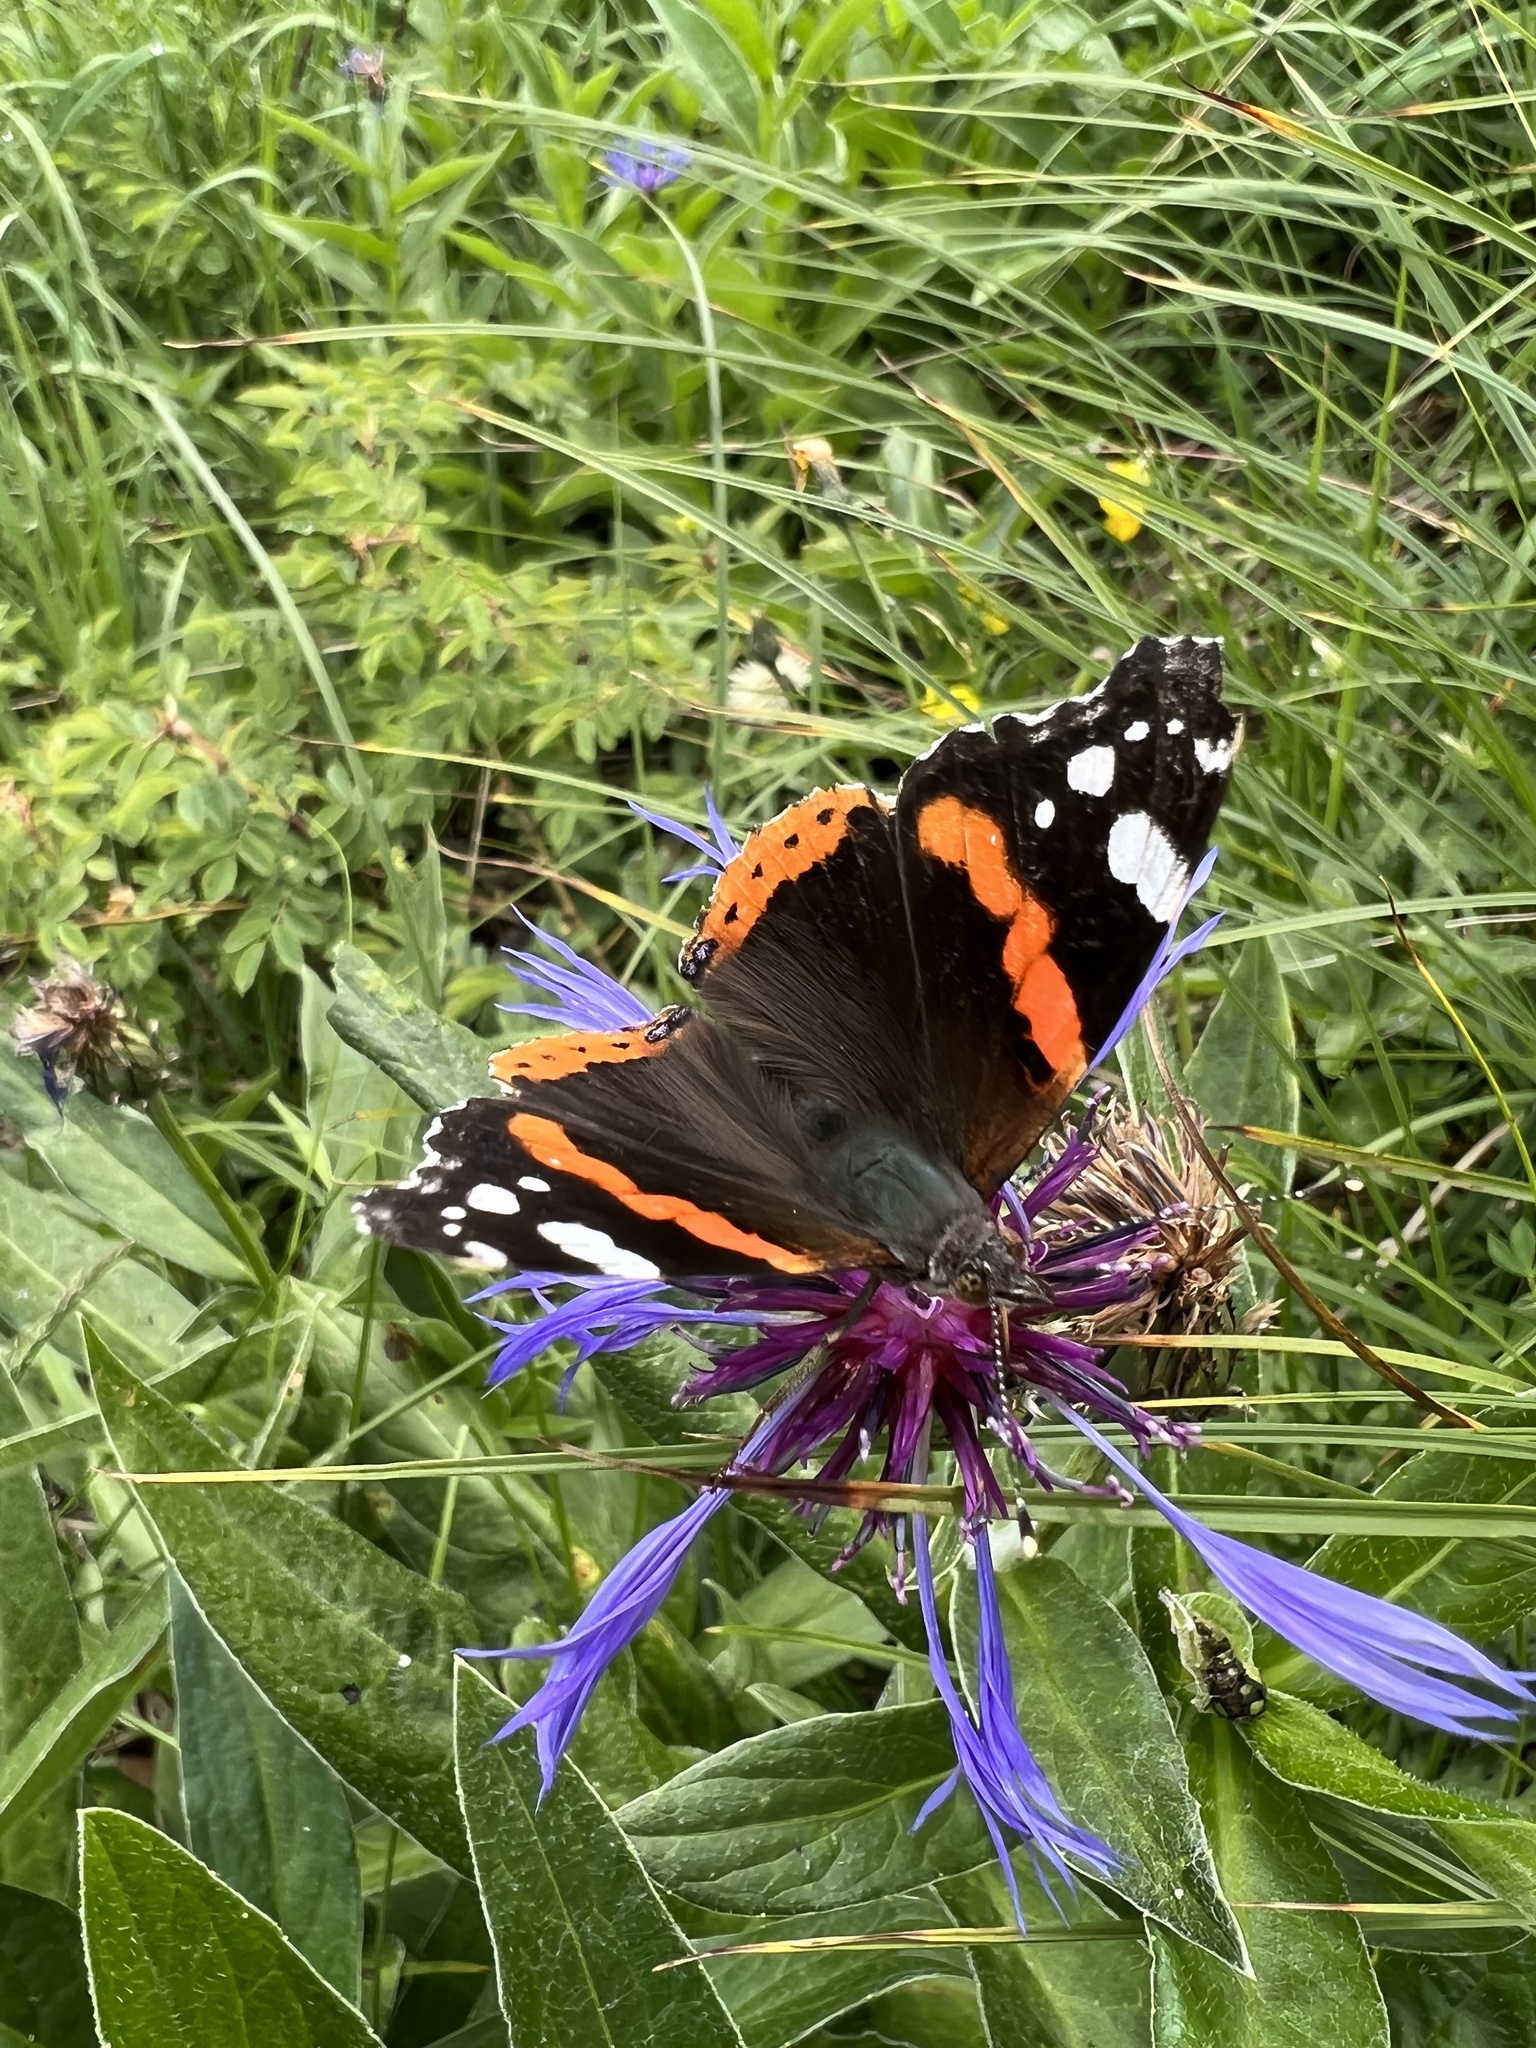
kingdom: Animalia
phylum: Arthropoda
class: Insecta
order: Lepidoptera
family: Nymphalidae
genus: Vanessa
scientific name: Vanessa atalanta
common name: Red admiral
